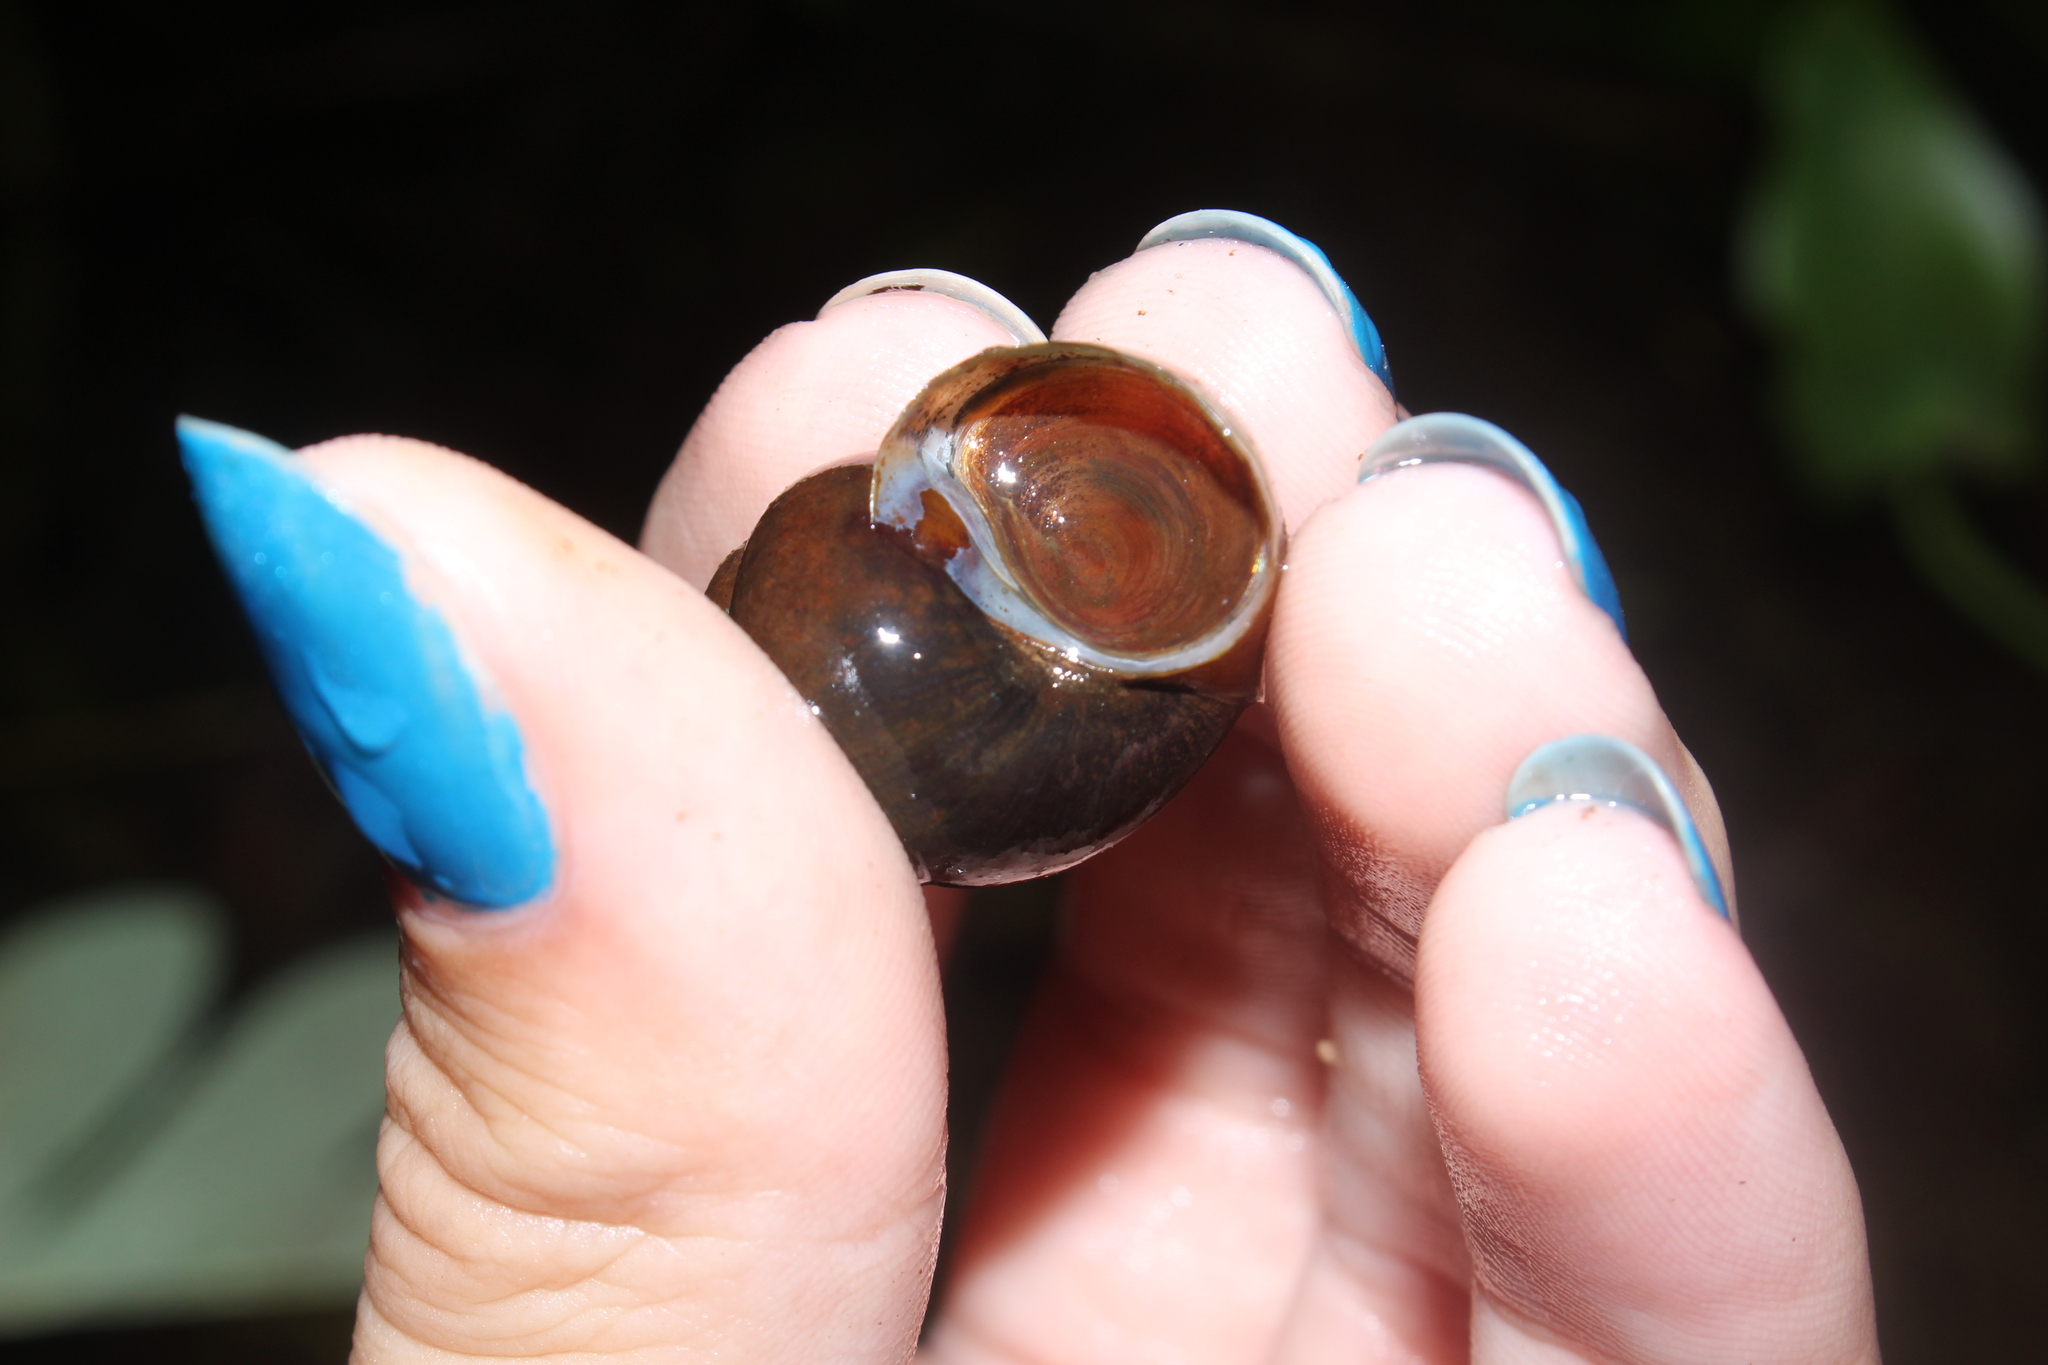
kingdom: Animalia
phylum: Mollusca
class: Gastropoda
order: Architaenioglossa
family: Viviparidae
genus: Callinina
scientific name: Callinina georgiana
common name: Banded mystery snail
